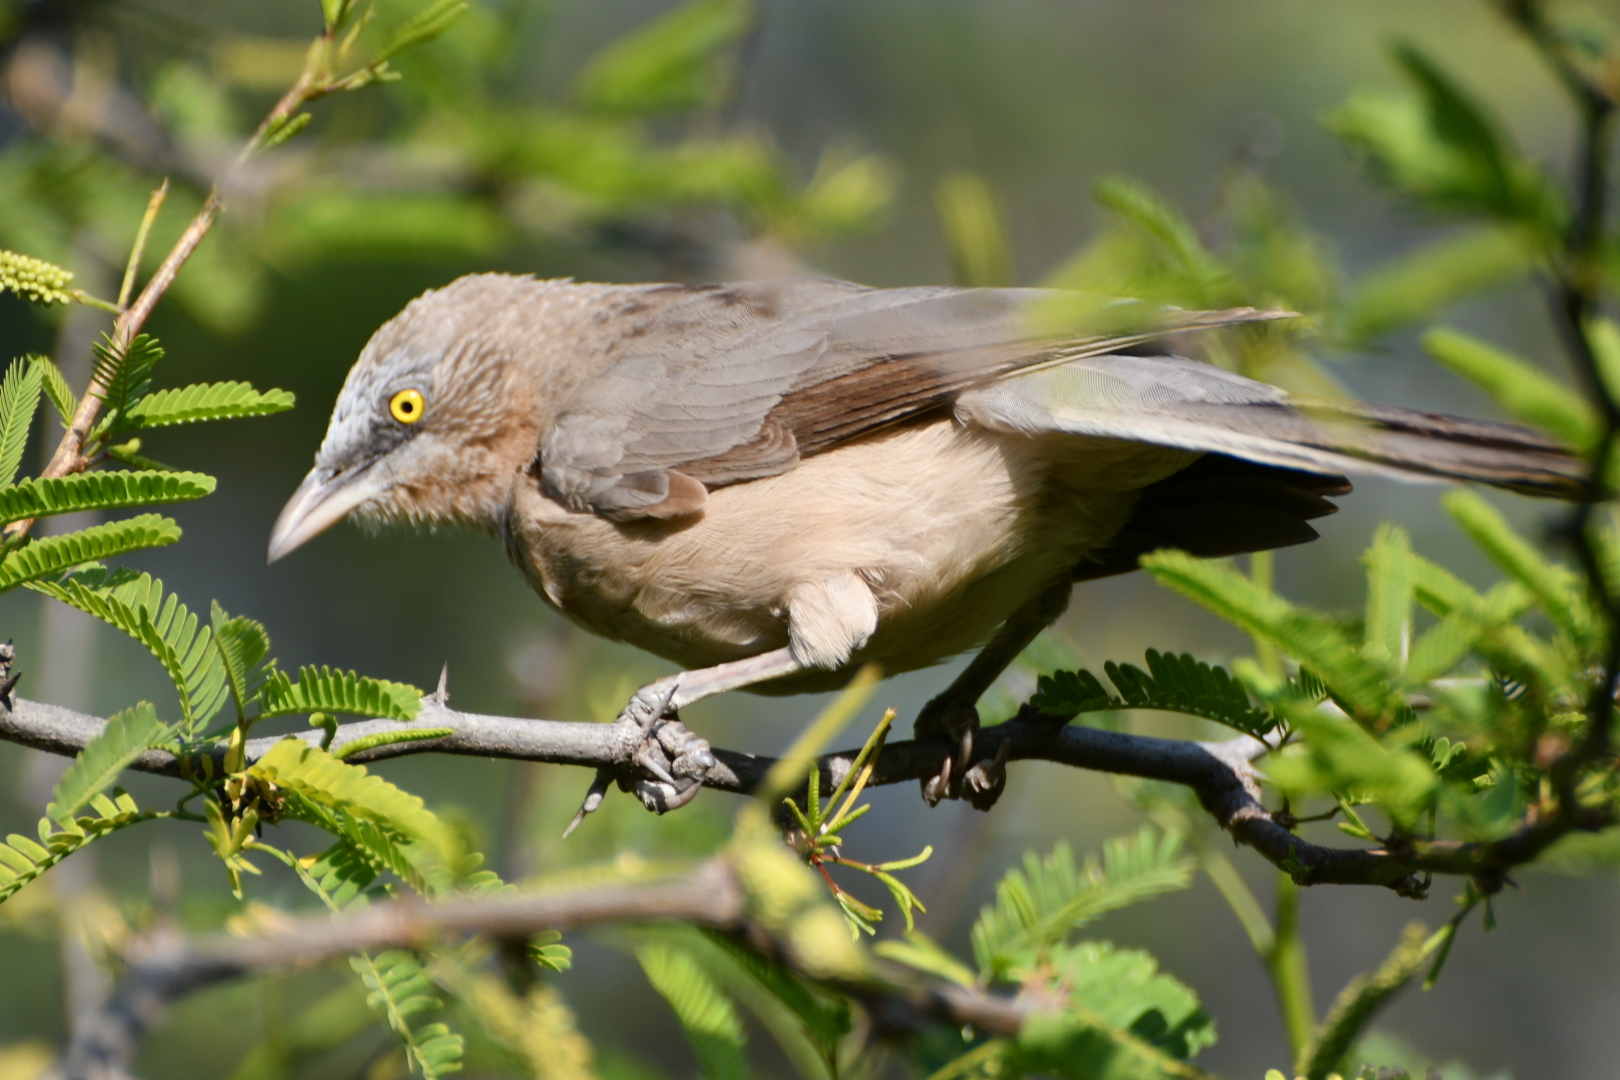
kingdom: Animalia
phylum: Chordata
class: Aves
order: Passeriformes
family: Leiothrichidae
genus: Turdoides
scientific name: Turdoides malcolmi
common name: Large grey babbler
